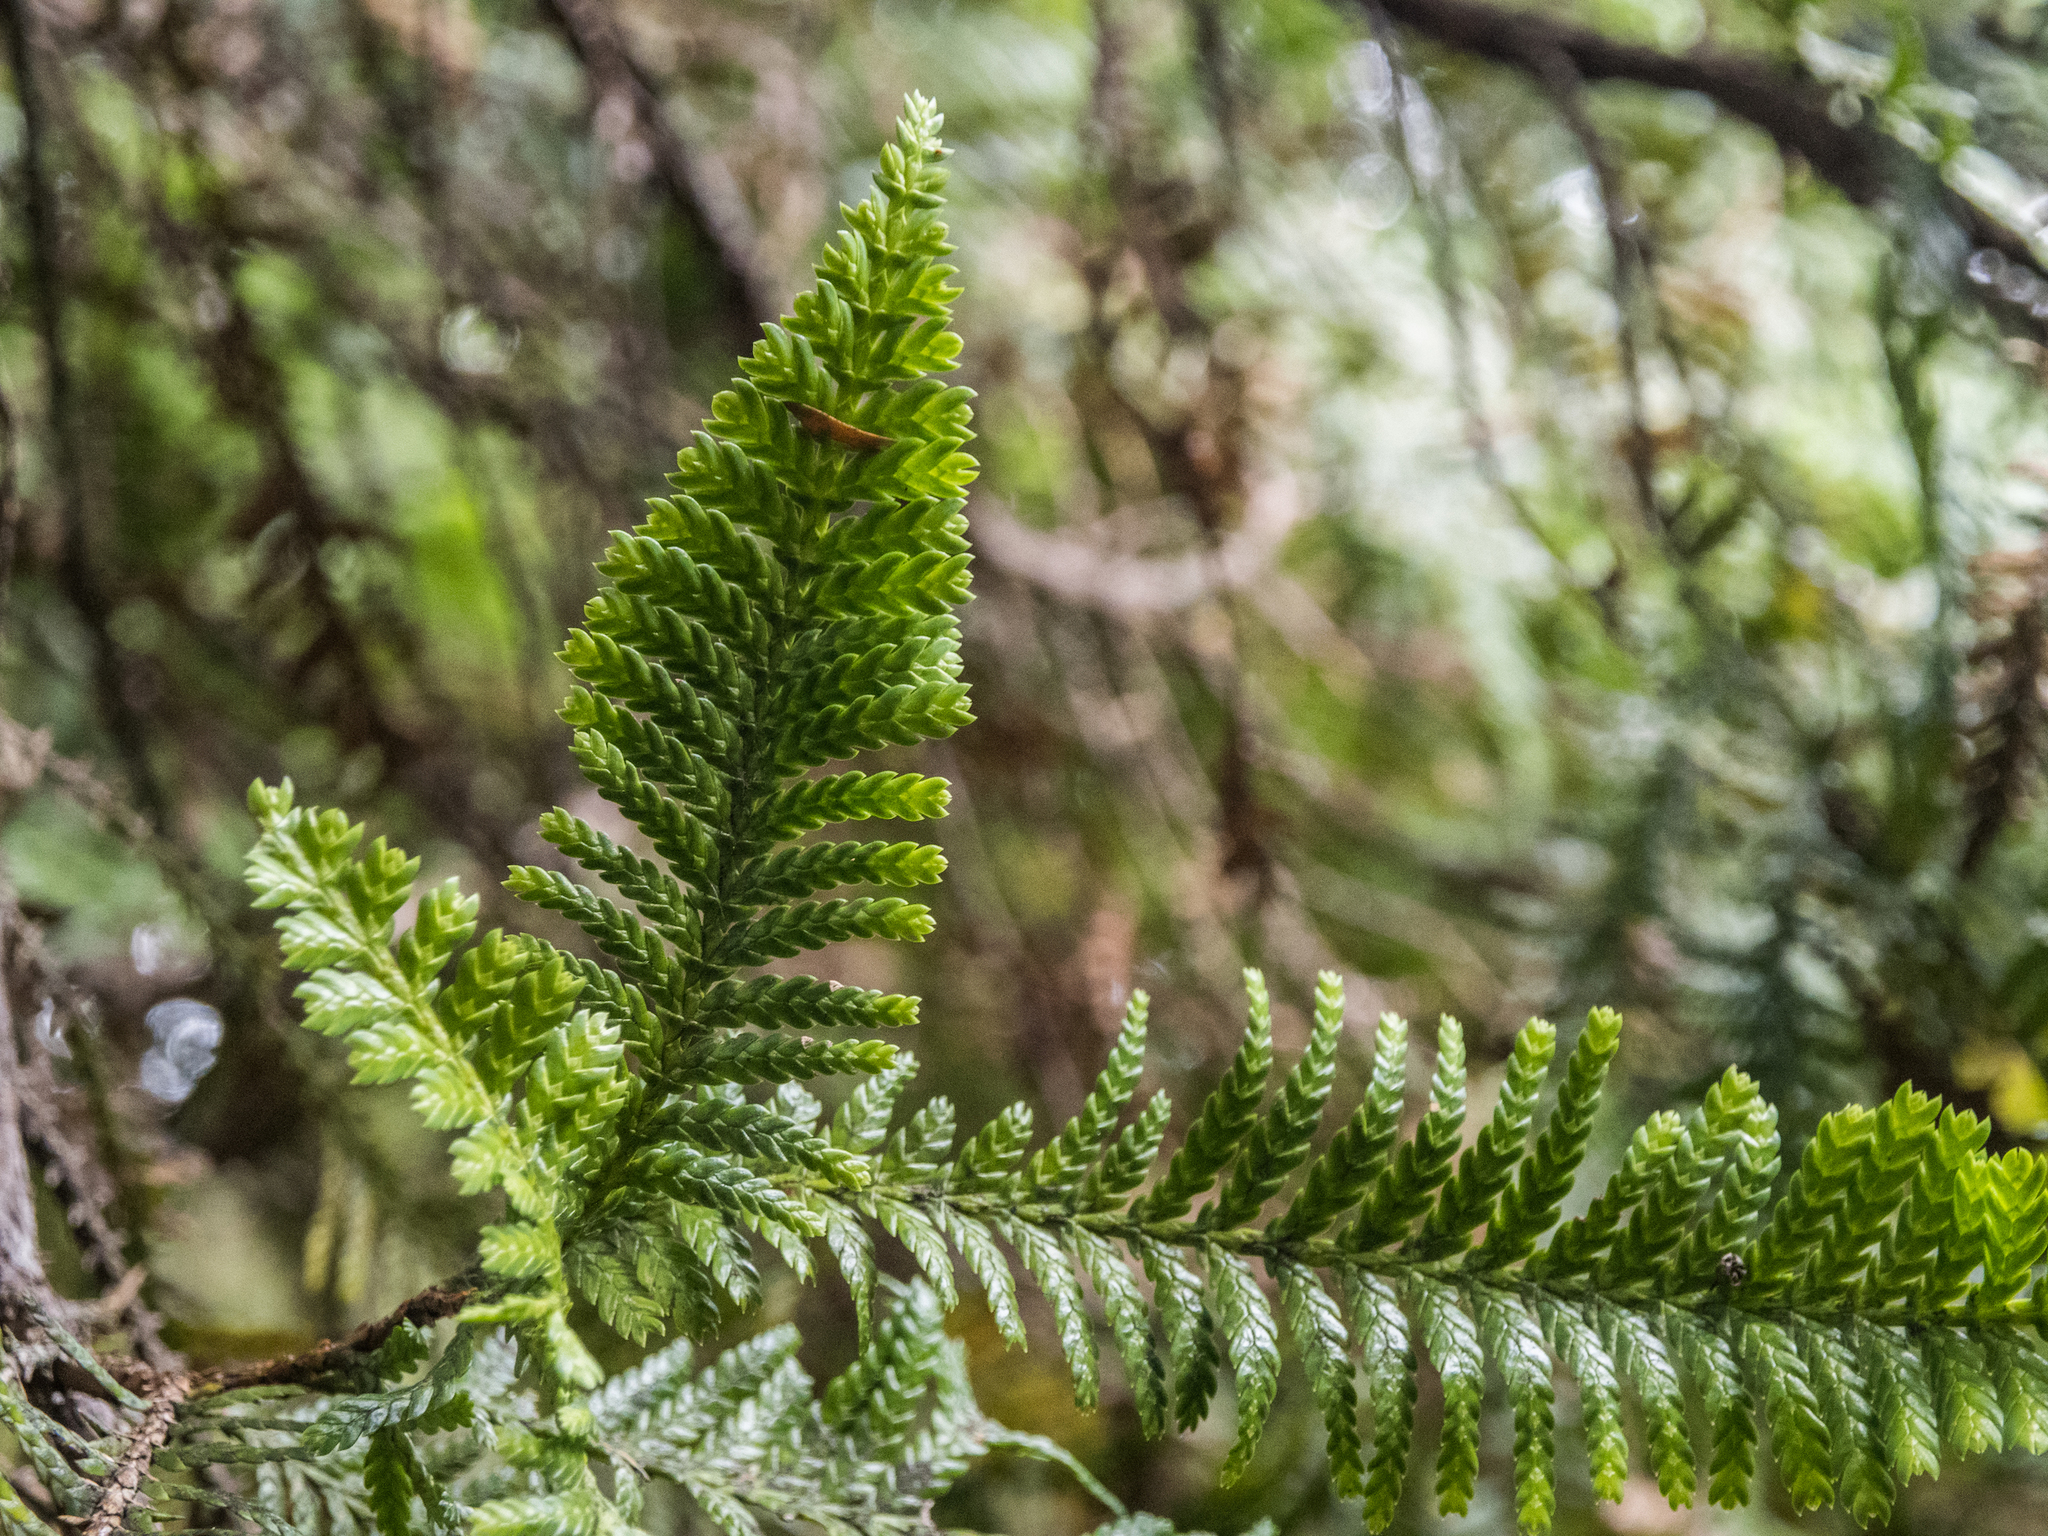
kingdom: Plantae
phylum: Tracheophyta
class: Pinopsida
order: Pinales
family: Cupressaceae
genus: Libocedrus
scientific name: Libocedrus plumosa
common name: New zealand cedar
